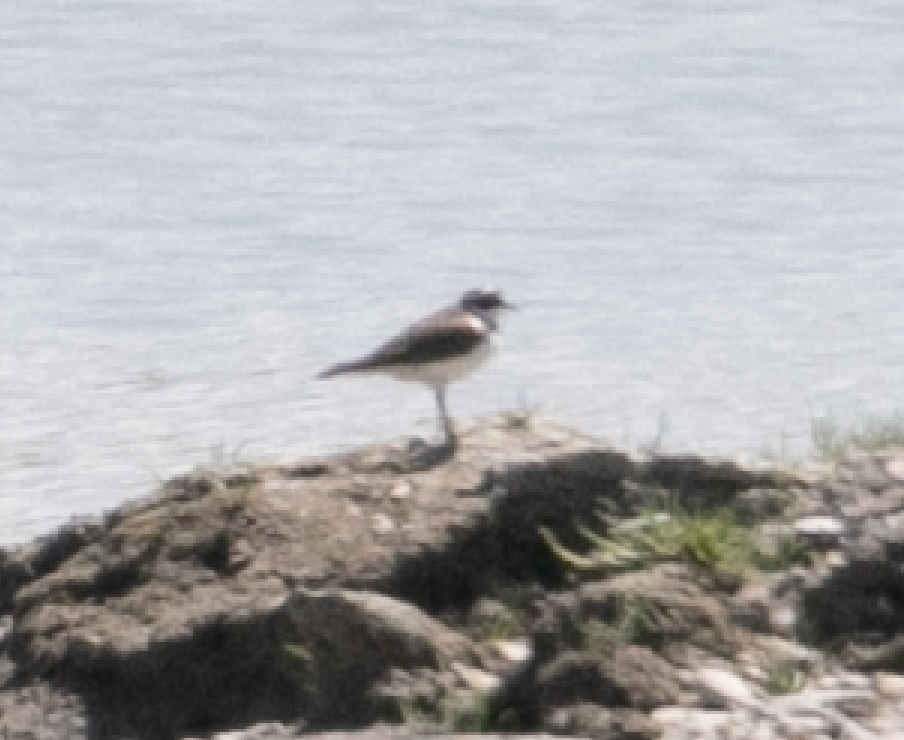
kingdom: Animalia
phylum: Chordata
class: Aves
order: Charadriiformes
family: Charadriidae
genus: Charadrius
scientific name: Charadrius dubius
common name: Little ringed plover
